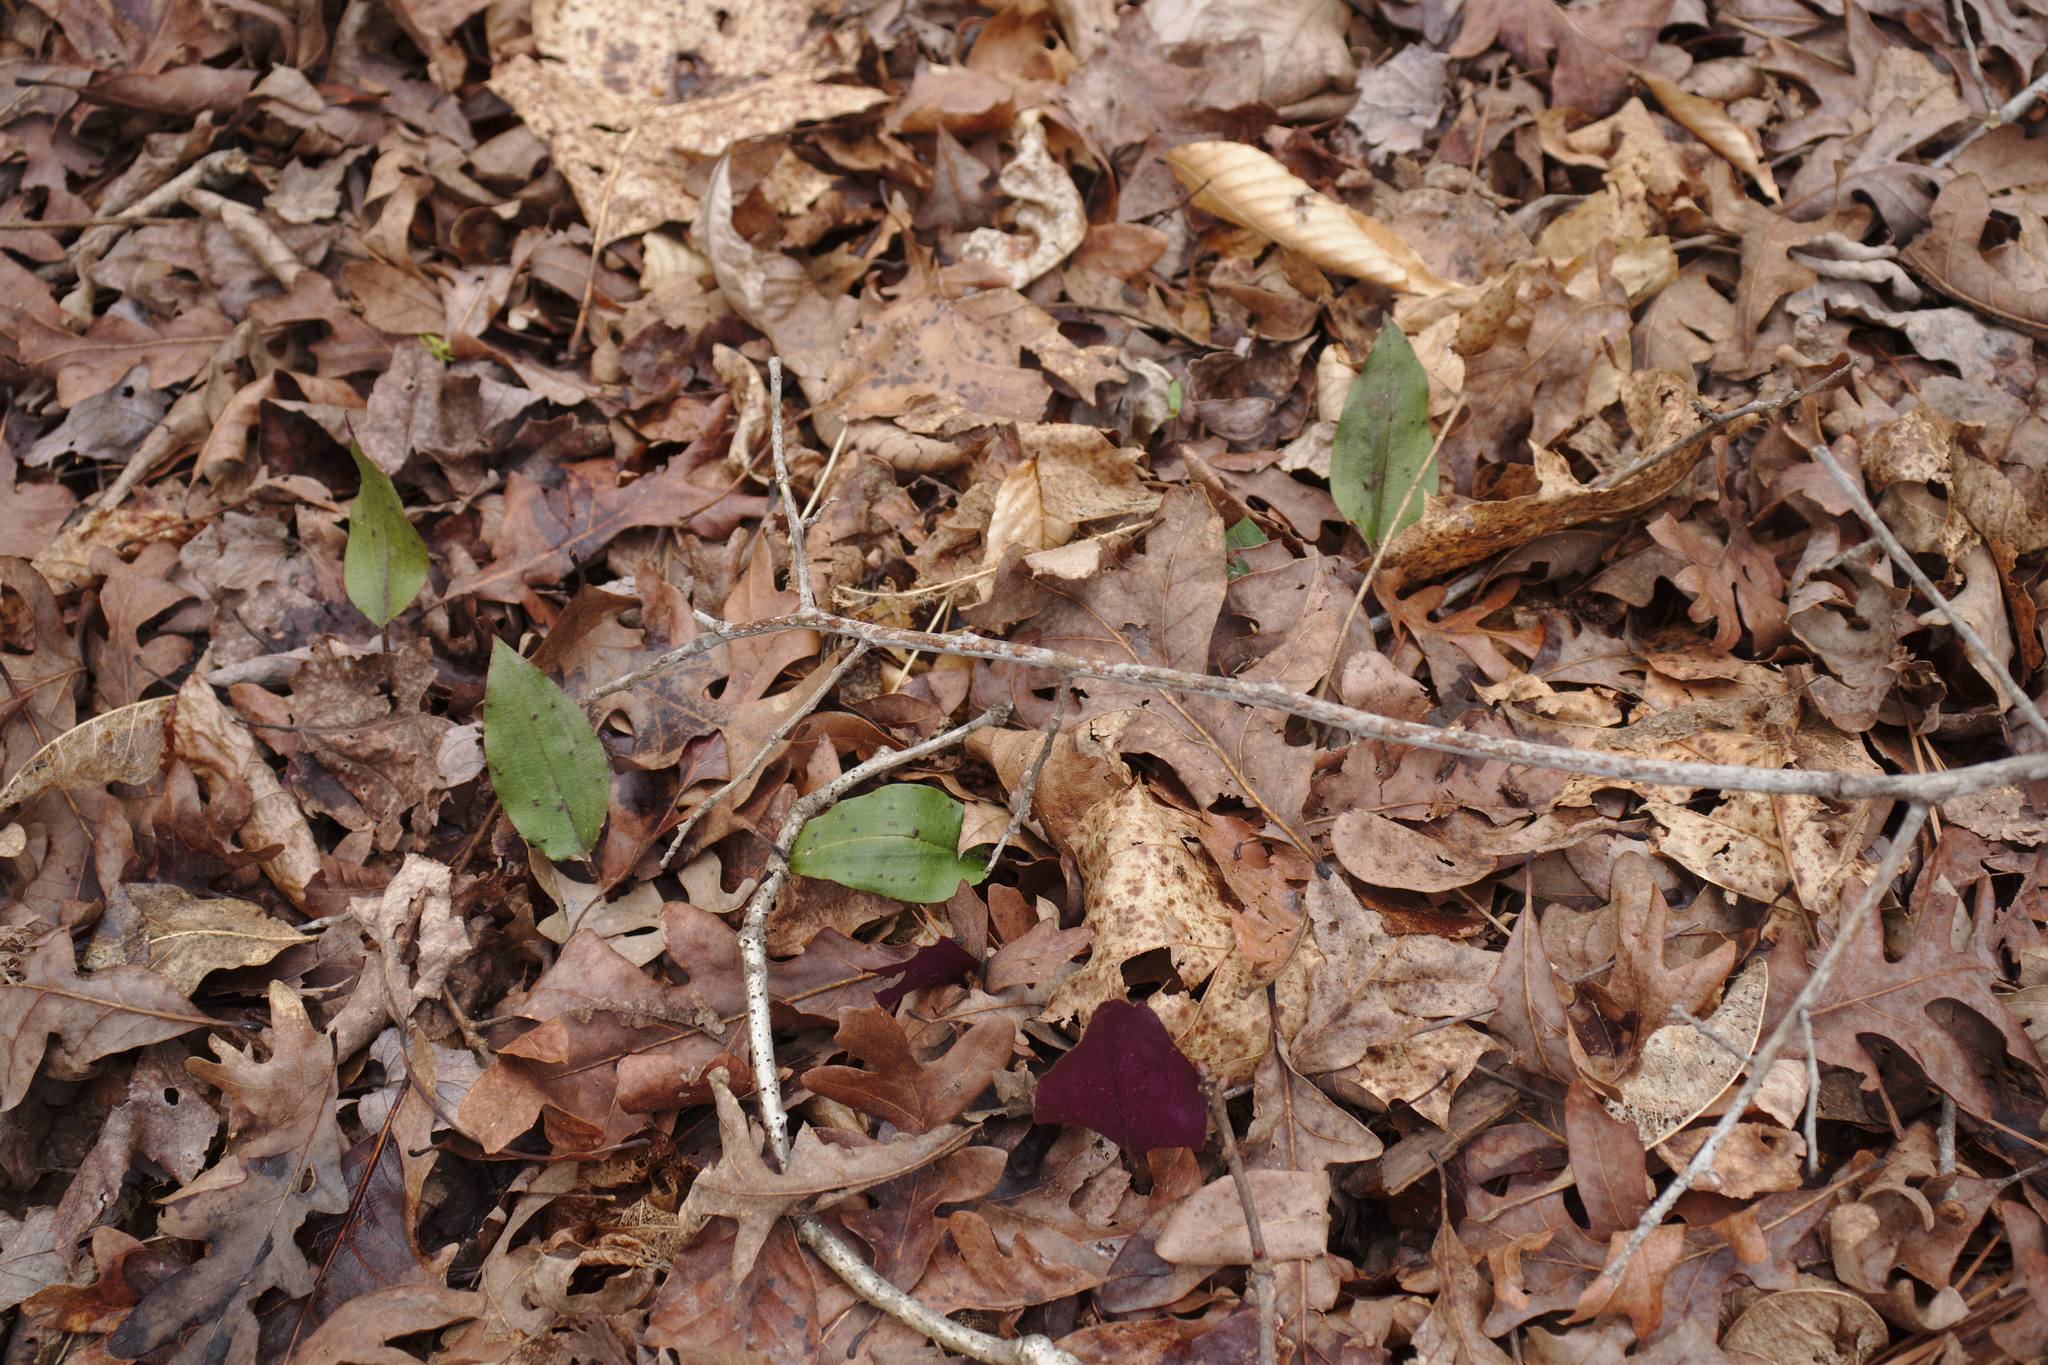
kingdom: Plantae
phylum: Tracheophyta
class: Liliopsida
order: Asparagales
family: Orchidaceae
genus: Tipularia
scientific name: Tipularia discolor
